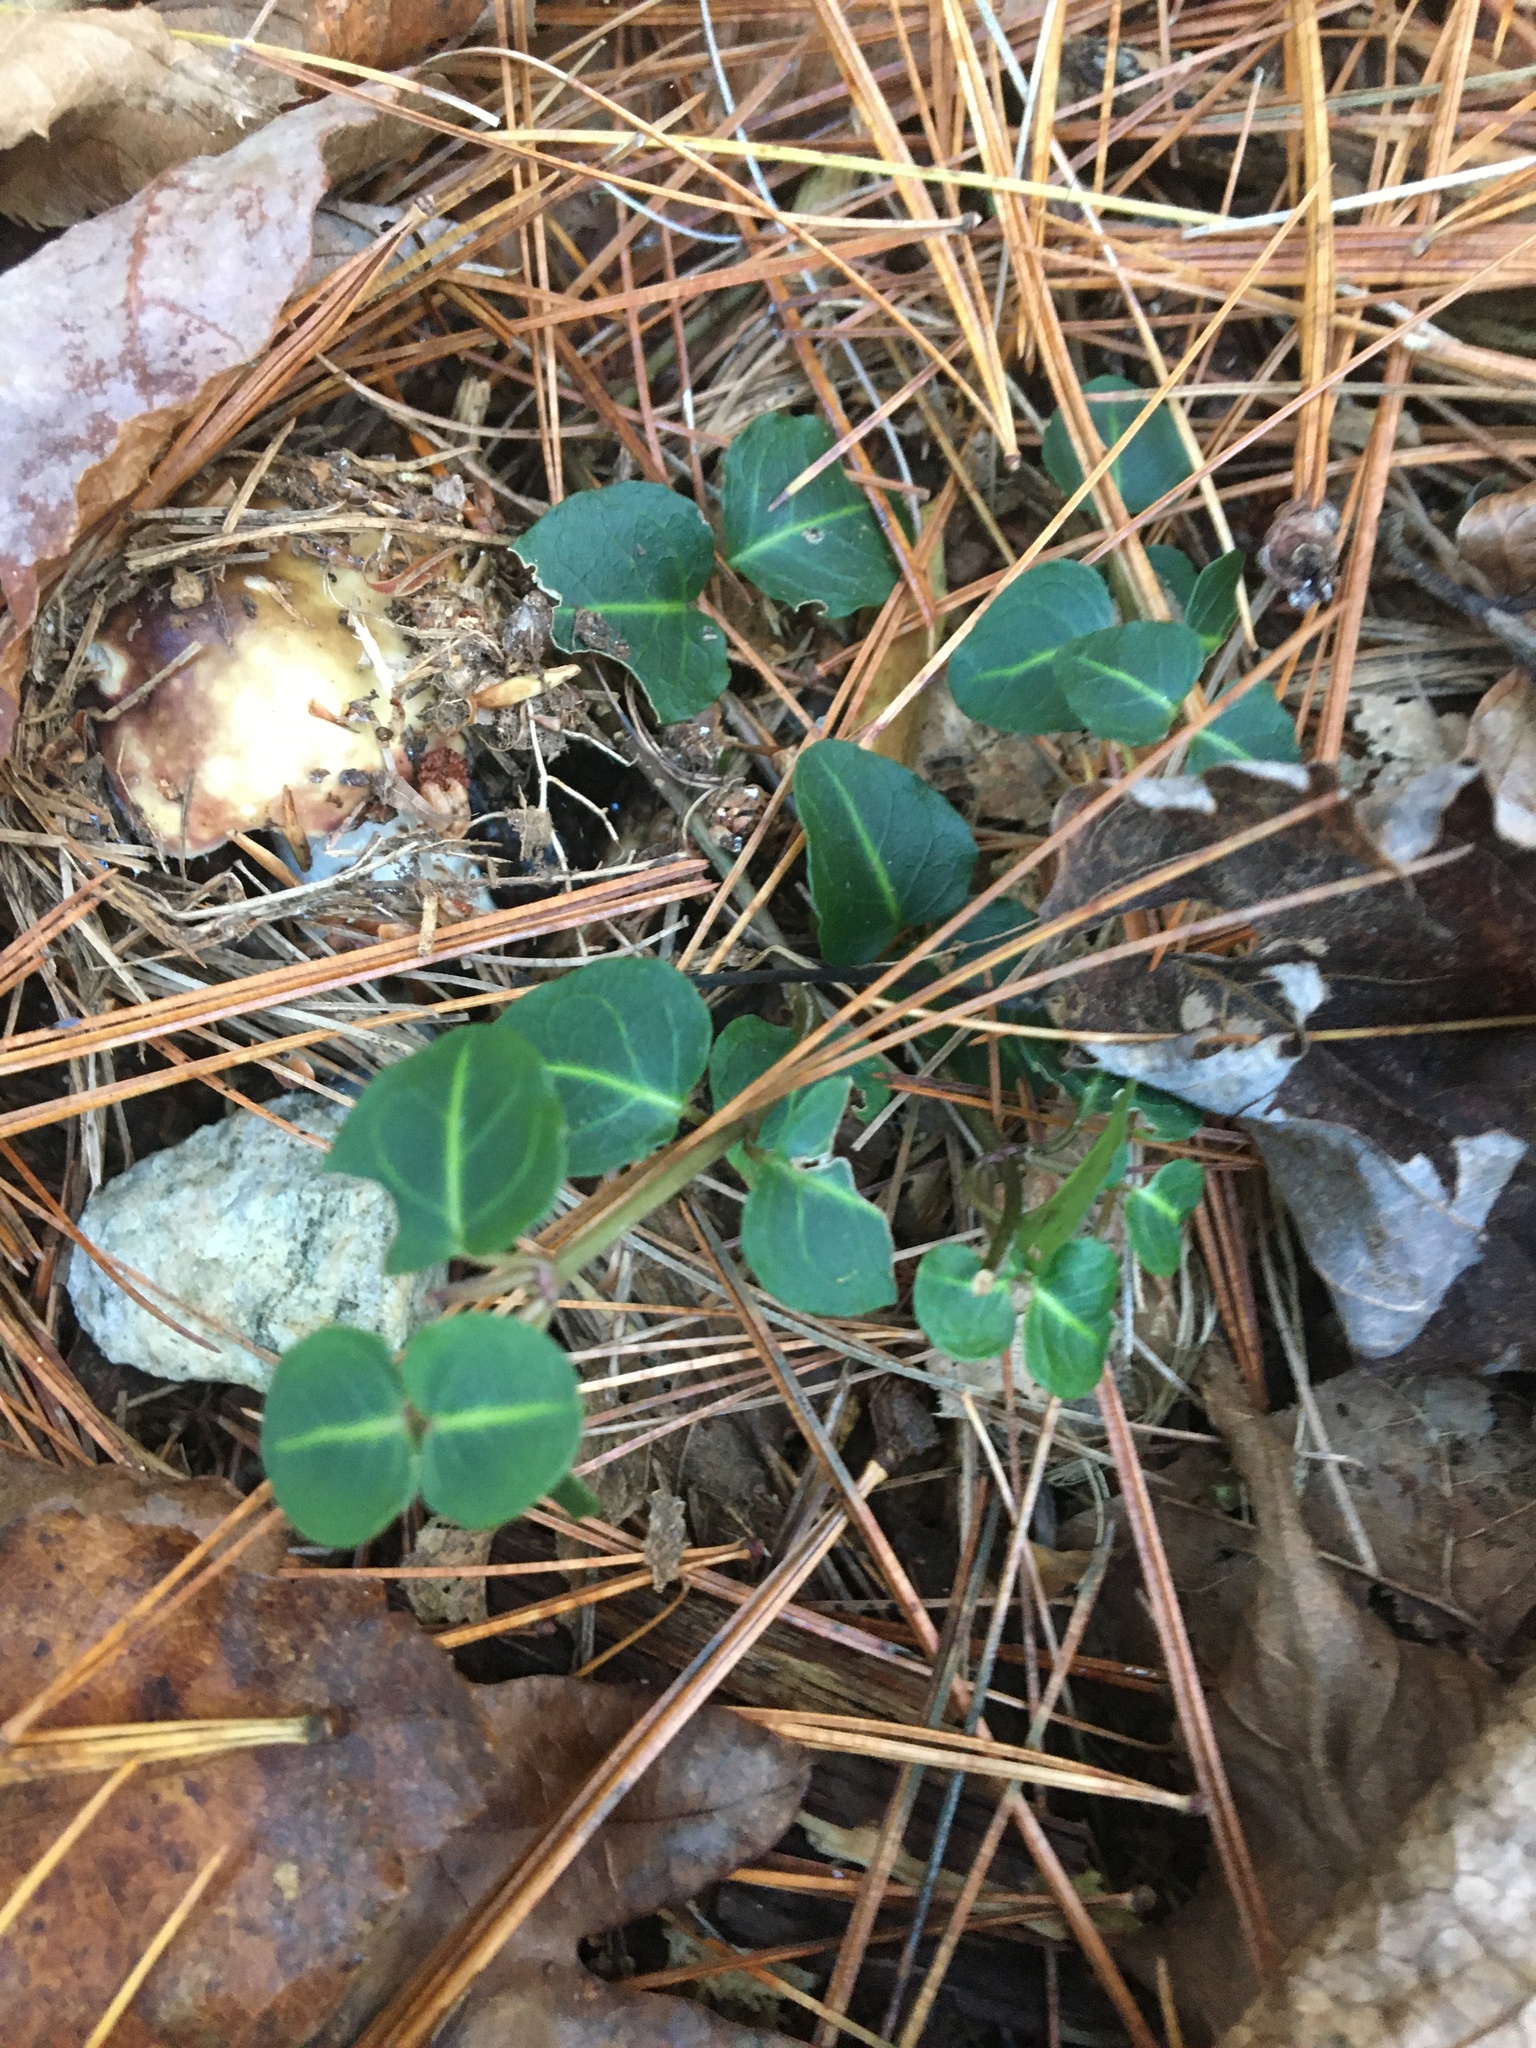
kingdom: Plantae
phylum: Tracheophyta
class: Magnoliopsida
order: Gentianales
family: Rubiaceae
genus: Mitchella
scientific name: Mitchella repens
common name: Partridge-berry
